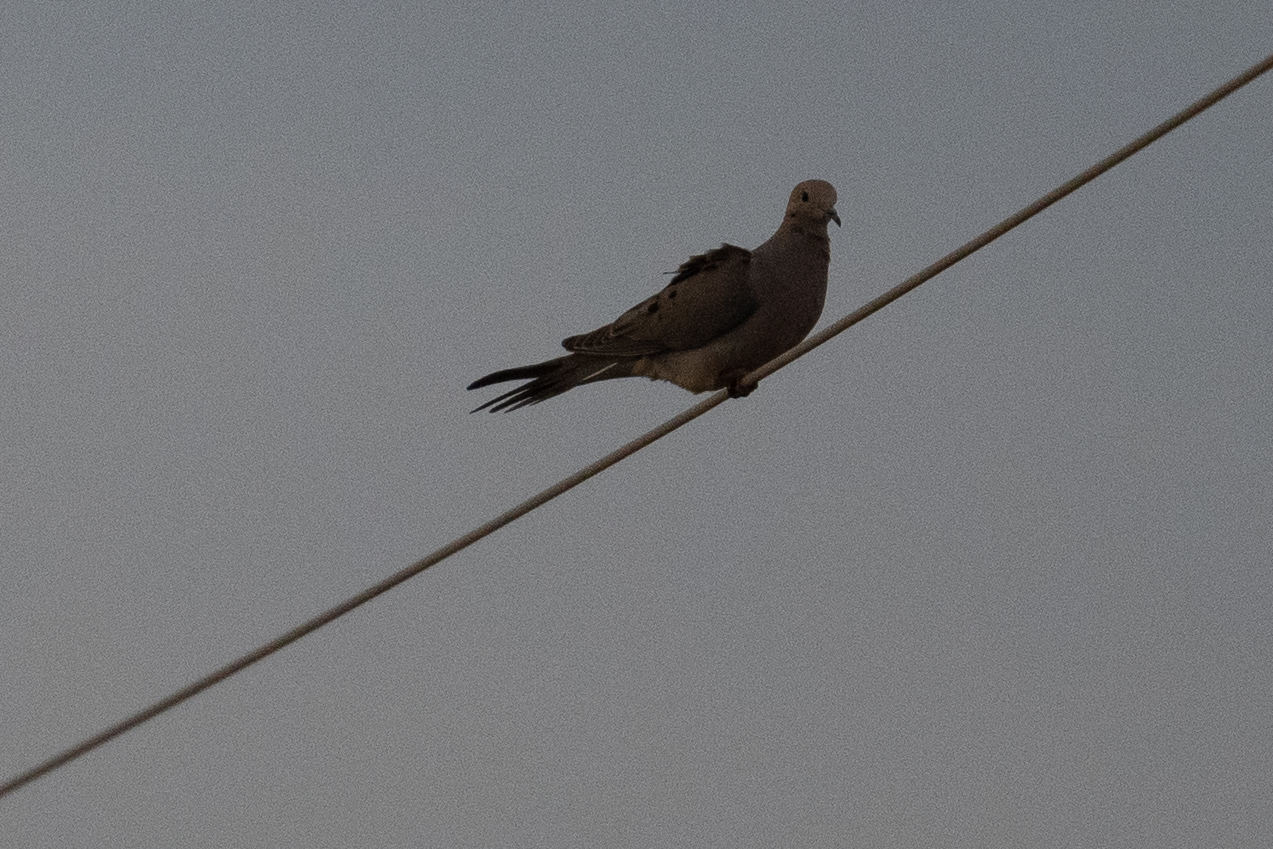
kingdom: Animalia
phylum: Chordata
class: Aves
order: Columbiformes
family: Columbidae
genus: Zenaida
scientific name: Zenaida macroura
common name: Mourning dove
